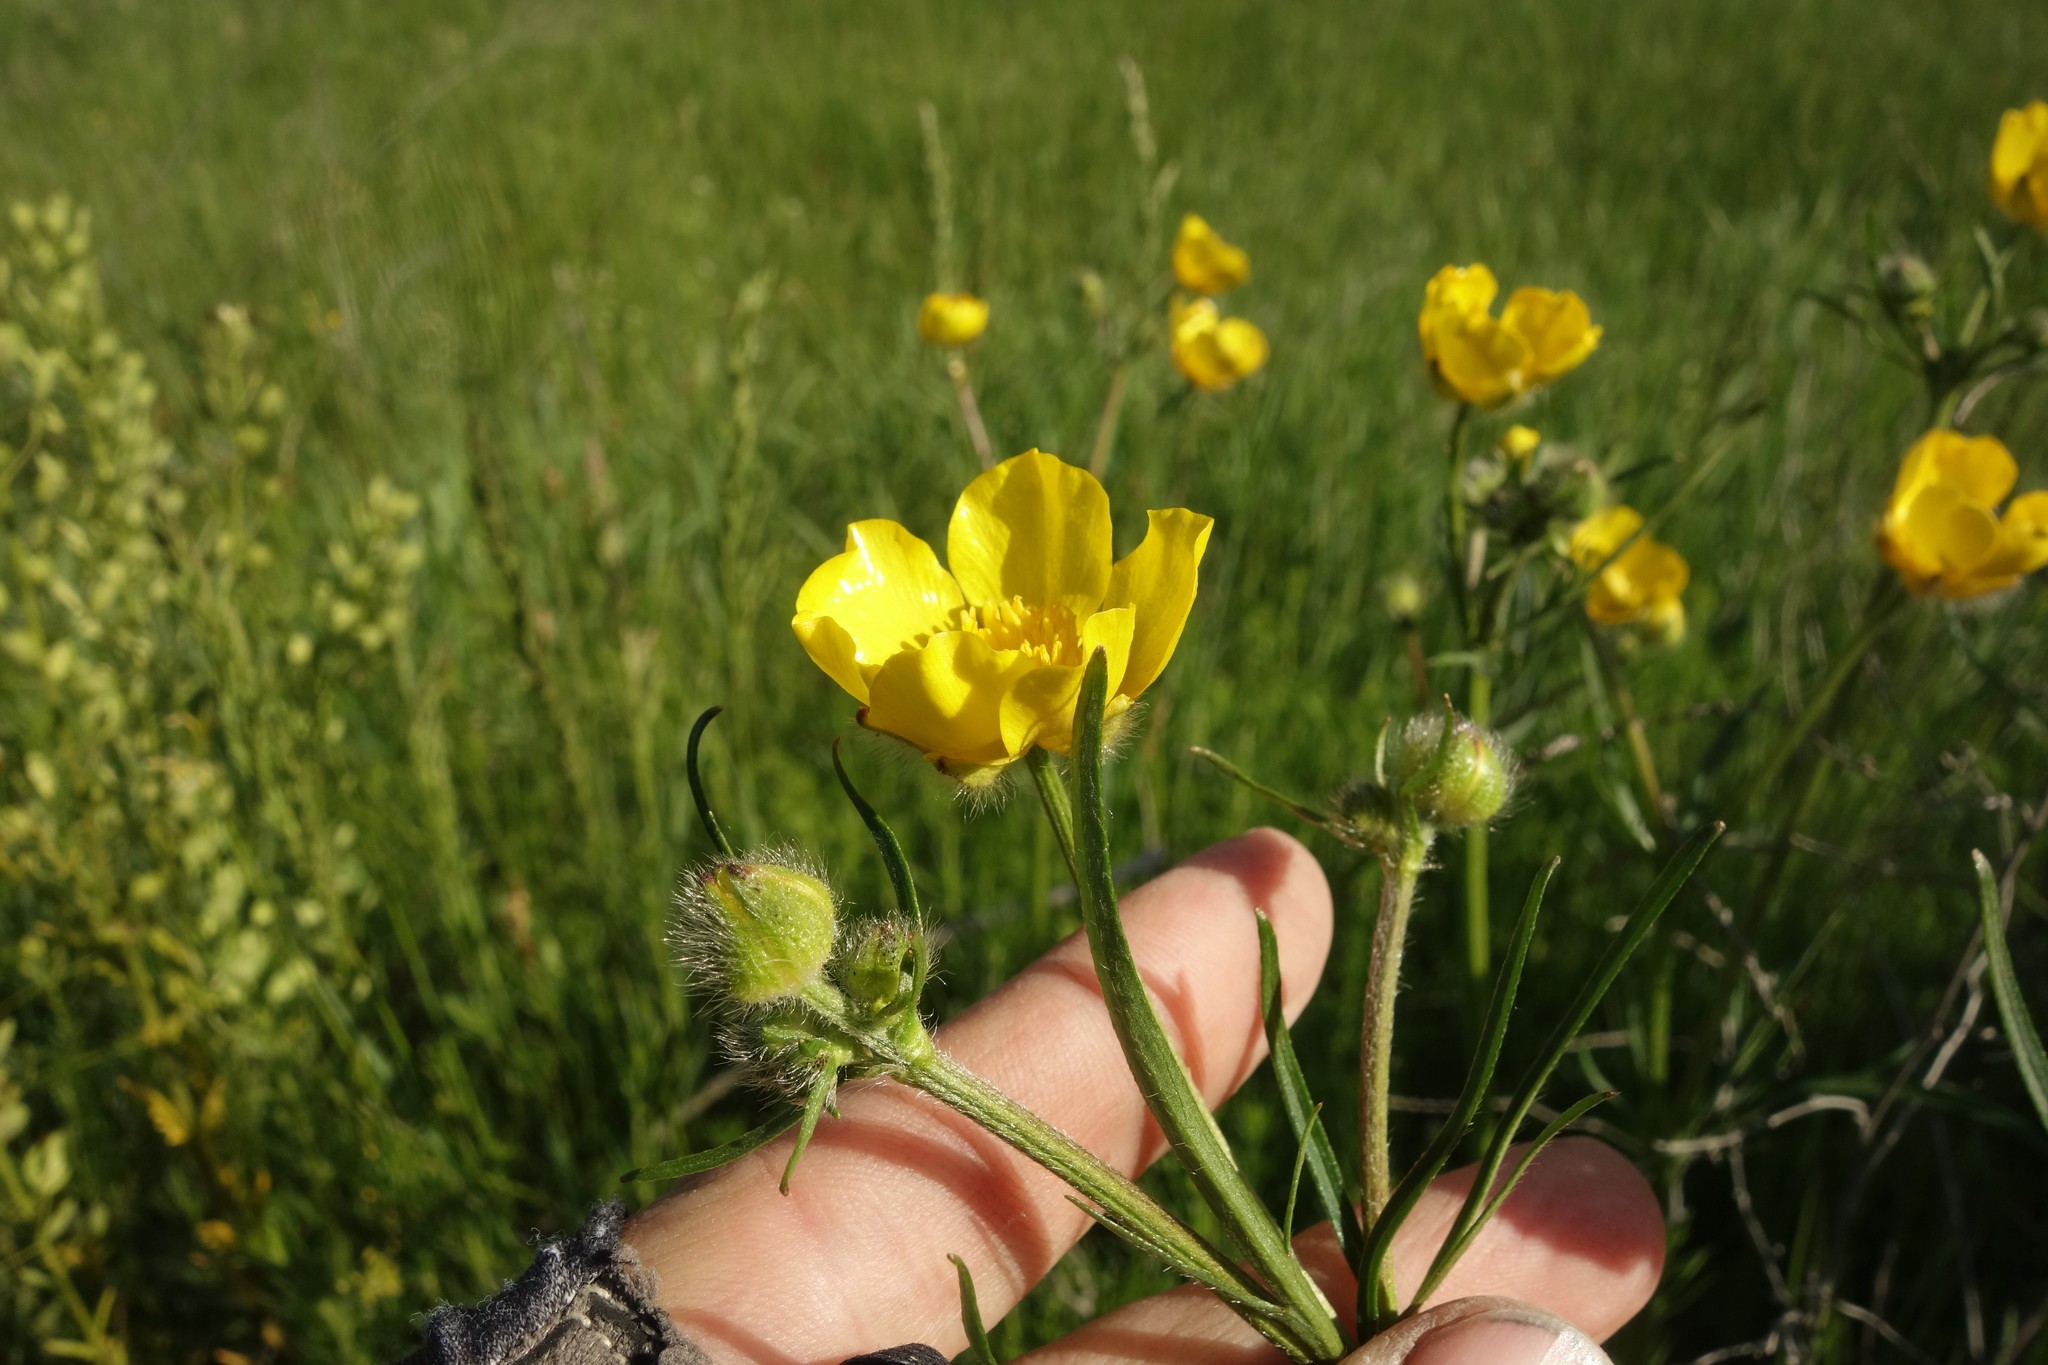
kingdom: Plantae
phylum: Tracheophyta
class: Magnoliopsida
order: Ranunculales
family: Ranunculaceae
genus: Ranunculus
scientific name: Ranunculus polyanthemos
